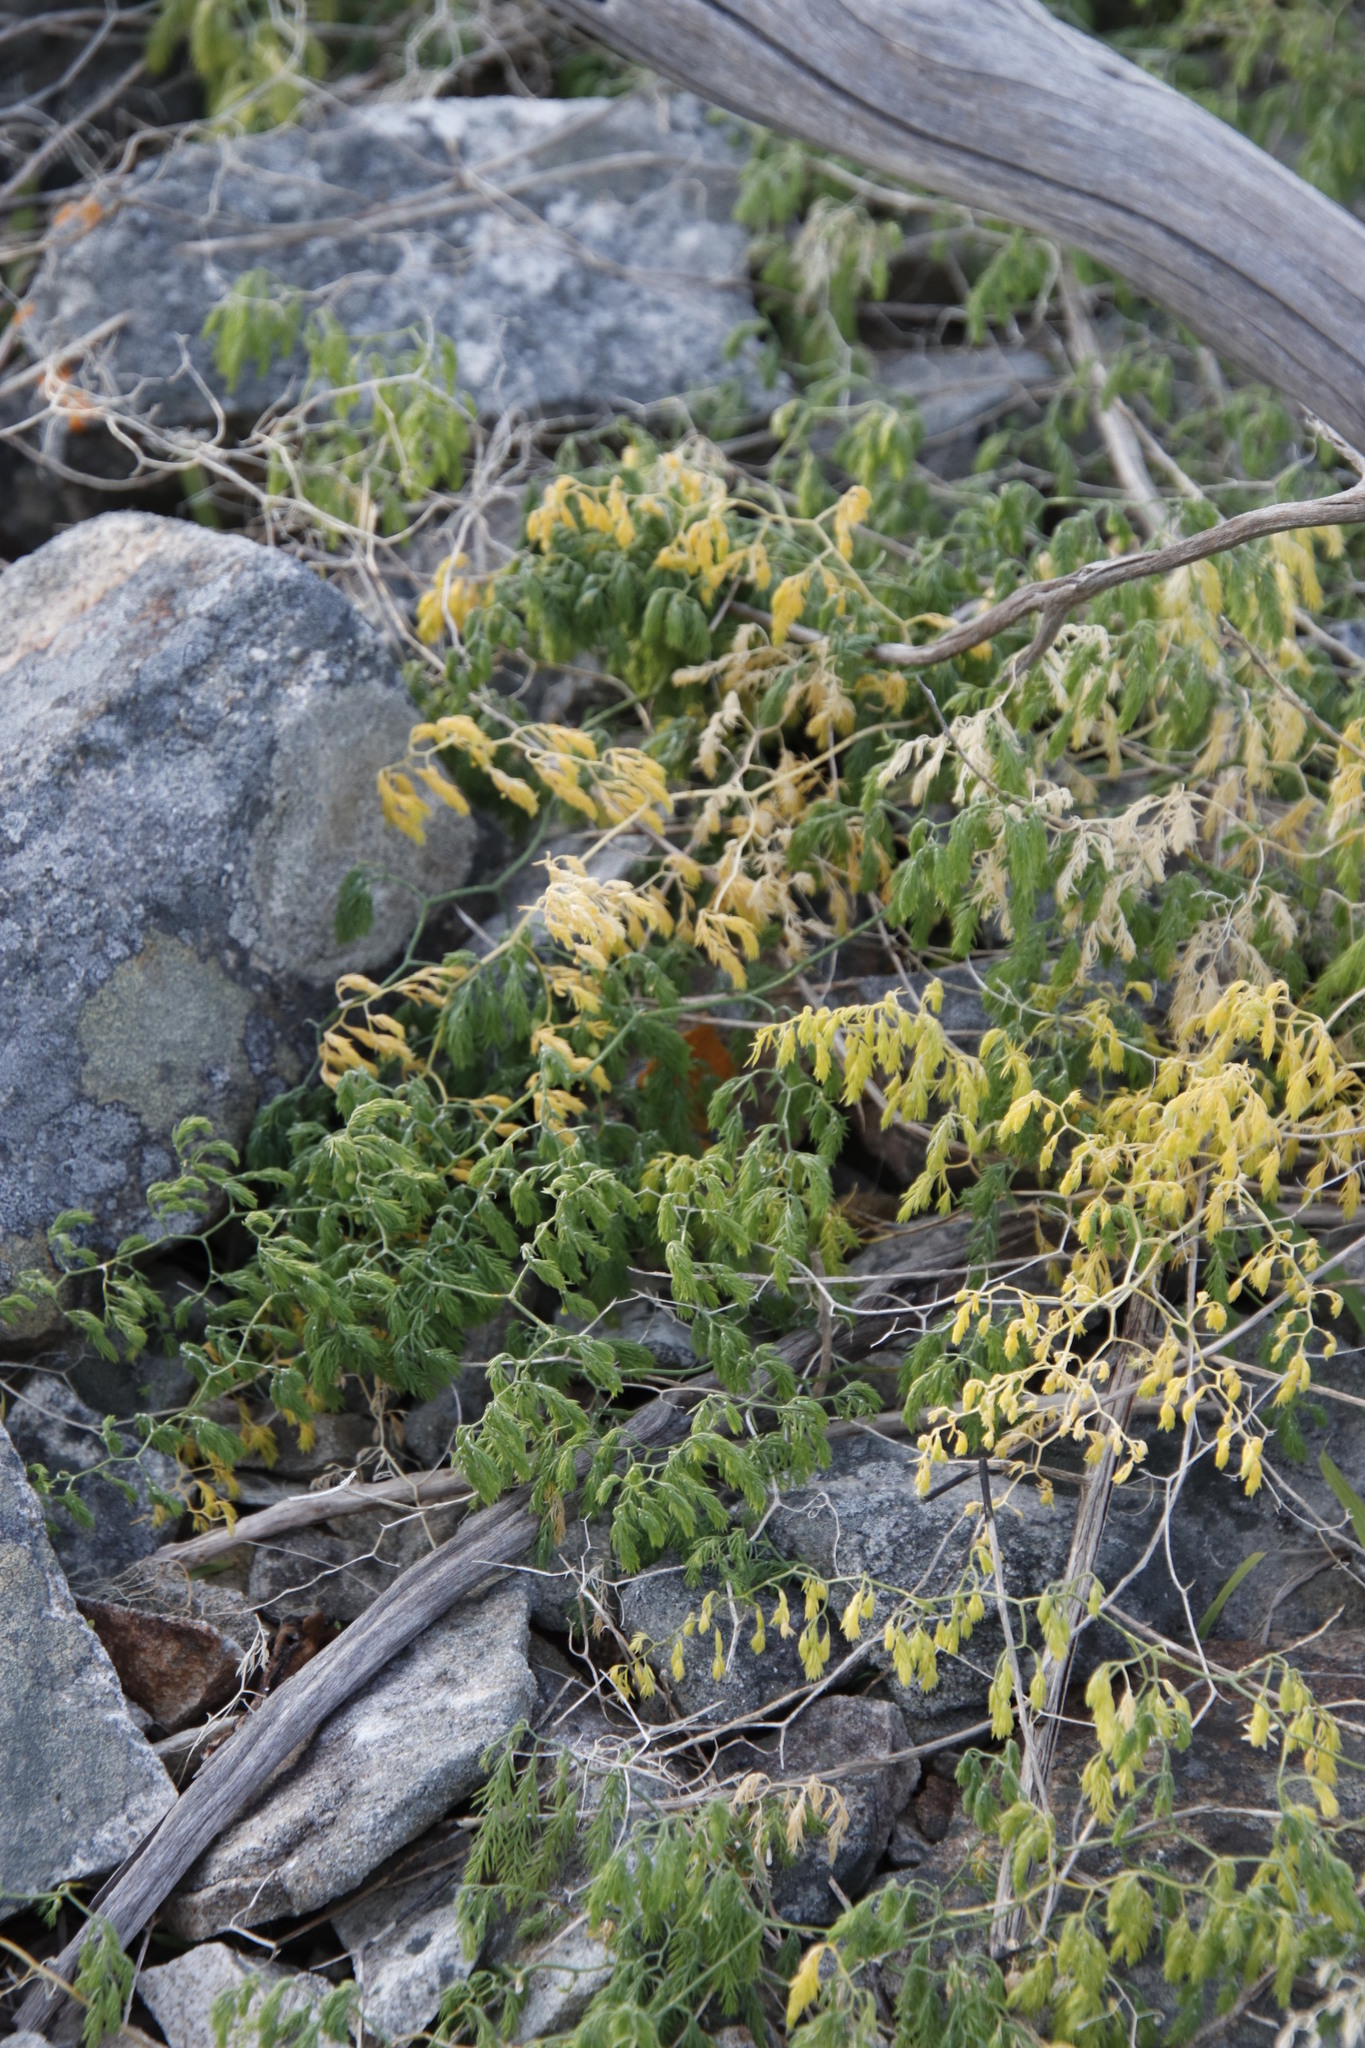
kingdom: Plantae
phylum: Tracheophyta
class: Liliopsida
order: Asparagales
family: Asparagaceae
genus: Asparagus
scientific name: Asparagus declinatus
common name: Bridal-creeper
